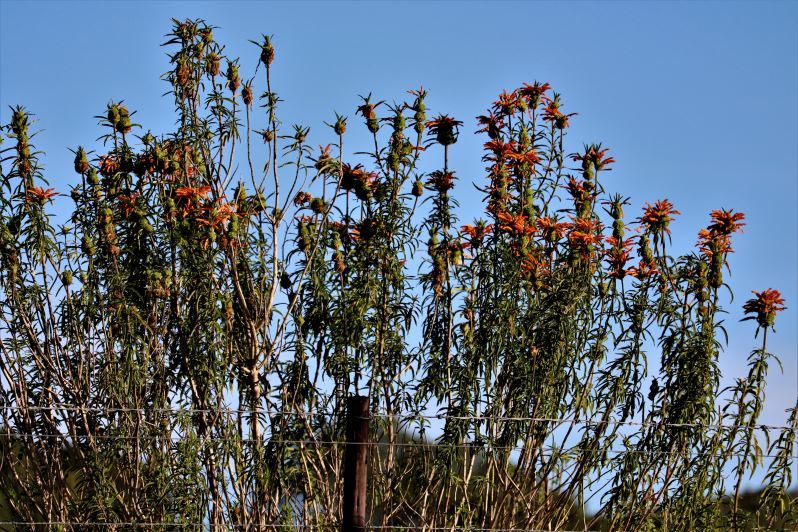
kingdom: Plantae
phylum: Tracheophyta
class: Magnoliopsida
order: Lamiales
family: Lamiaceae
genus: Leonotis
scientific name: Leonotis leonurus
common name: Lion's ear
